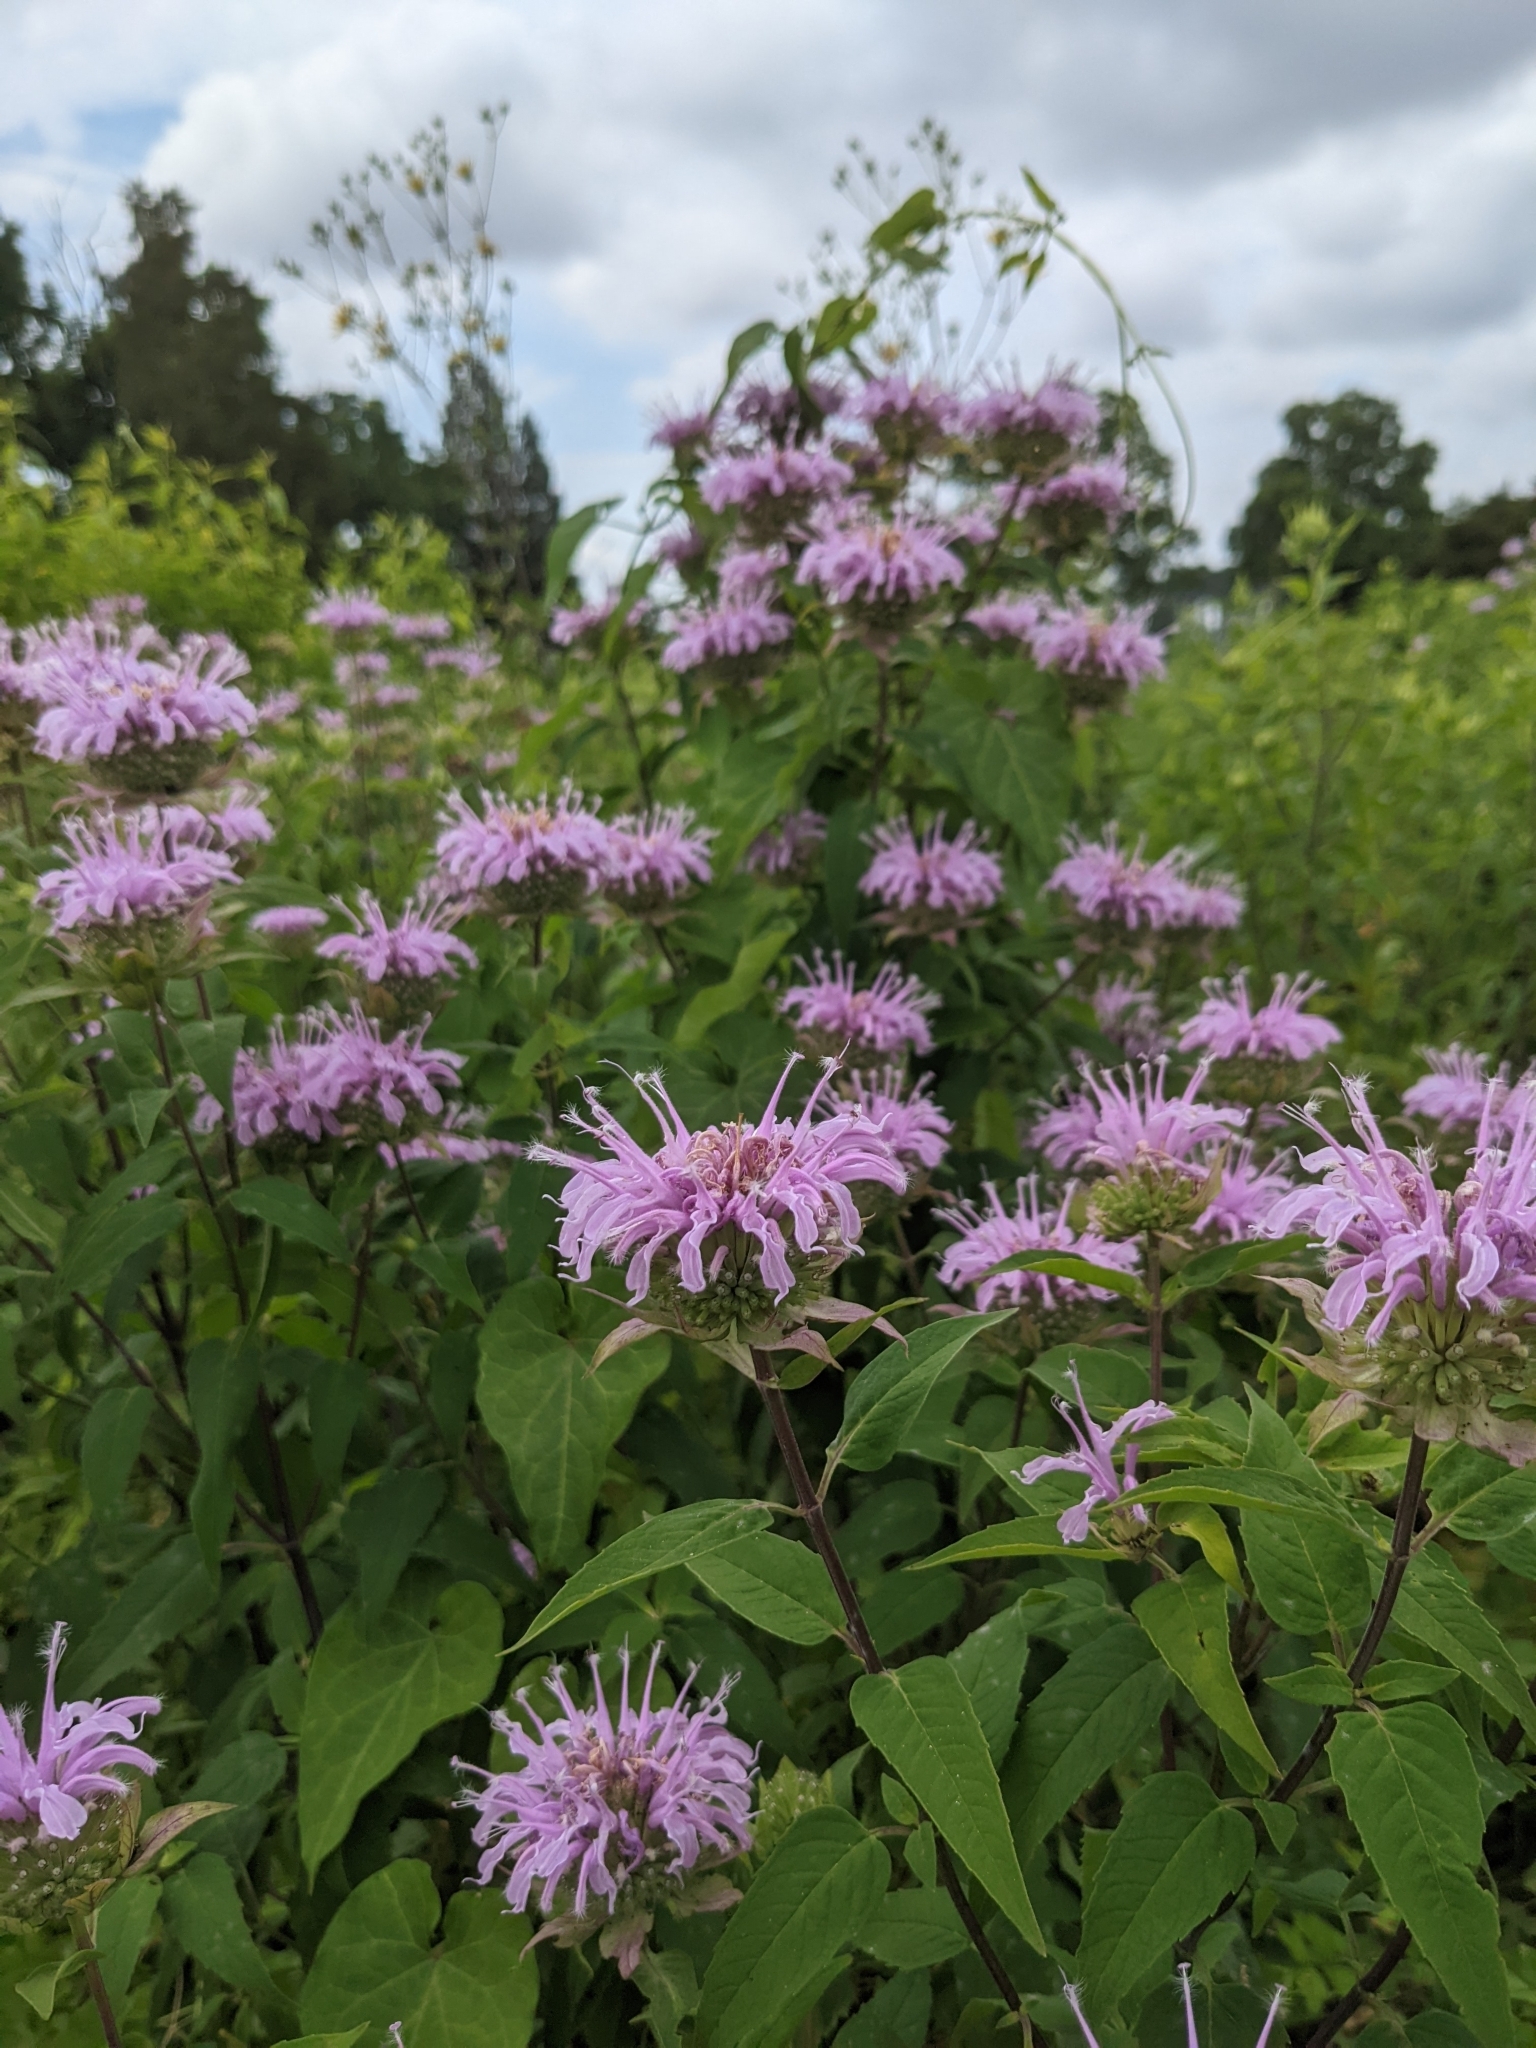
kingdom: Plantae
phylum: Tracheophyta
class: Magnoliopsida
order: Lamiales
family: Lamiaceae
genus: Monarda
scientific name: Monarda fistulosa
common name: Purple beebalm
